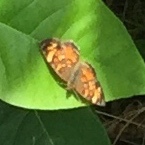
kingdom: Animalia
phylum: Arthropoda
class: Insecta
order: Lepidoptera
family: Nymphalidae
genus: Phyciodes
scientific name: Phyciodes tharos
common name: Pearl crescent
